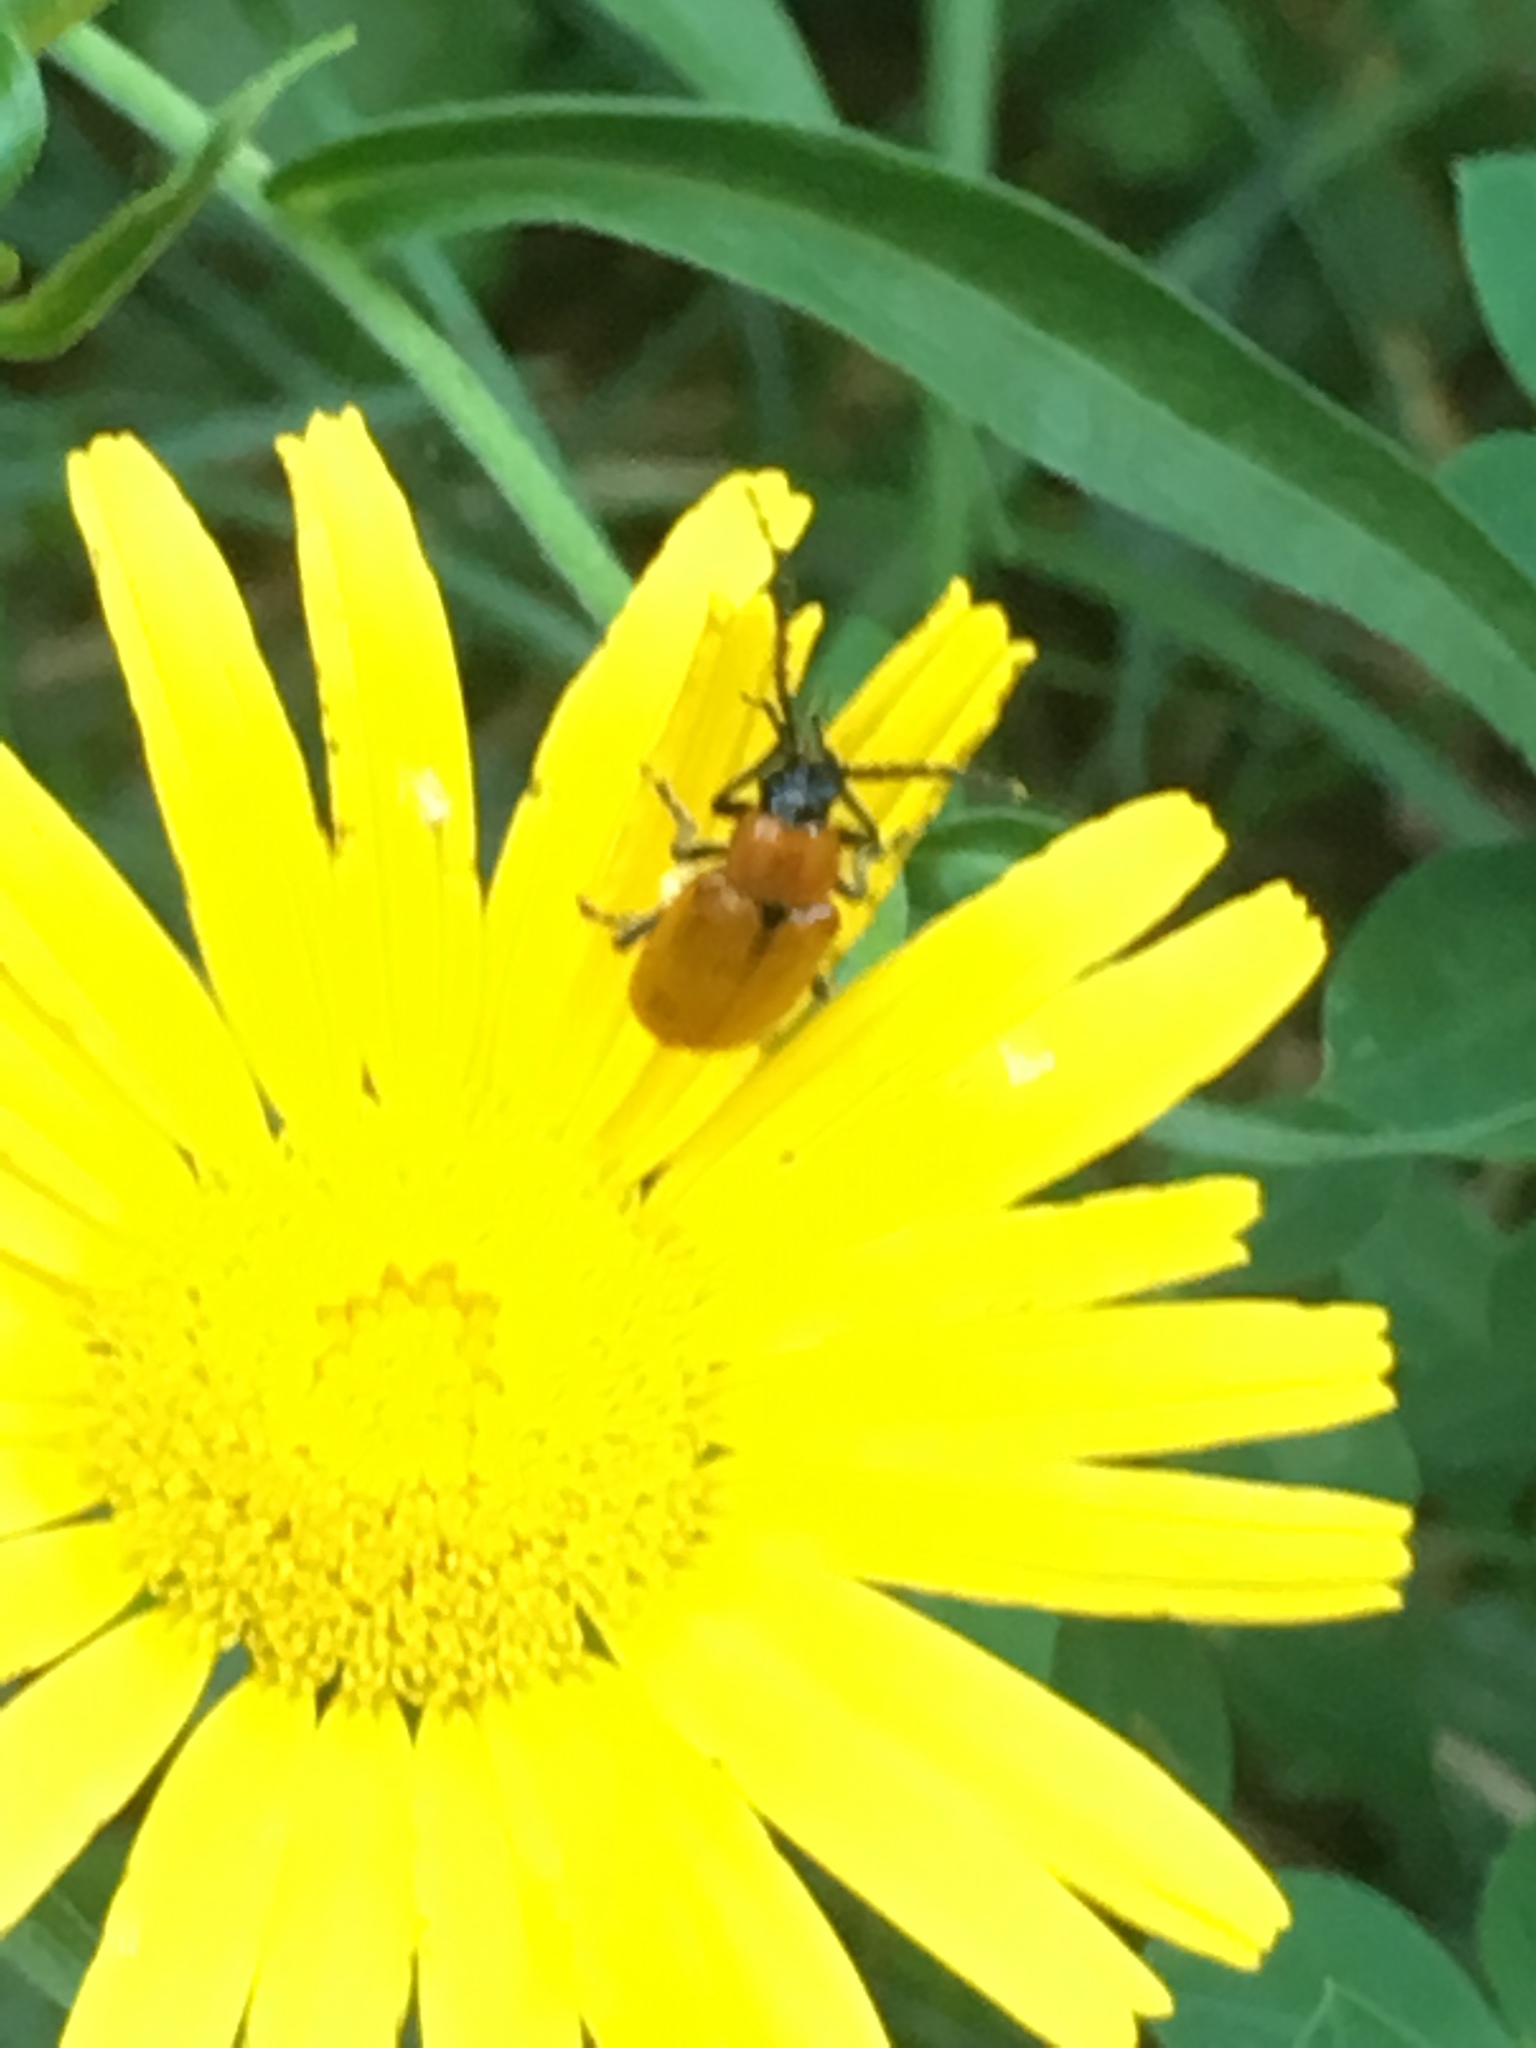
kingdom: Animalia
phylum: Arthropoda
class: Insecta
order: Coleoptera
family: Chrysomelidae
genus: Exosoma
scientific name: Exosoma lusitanicum
